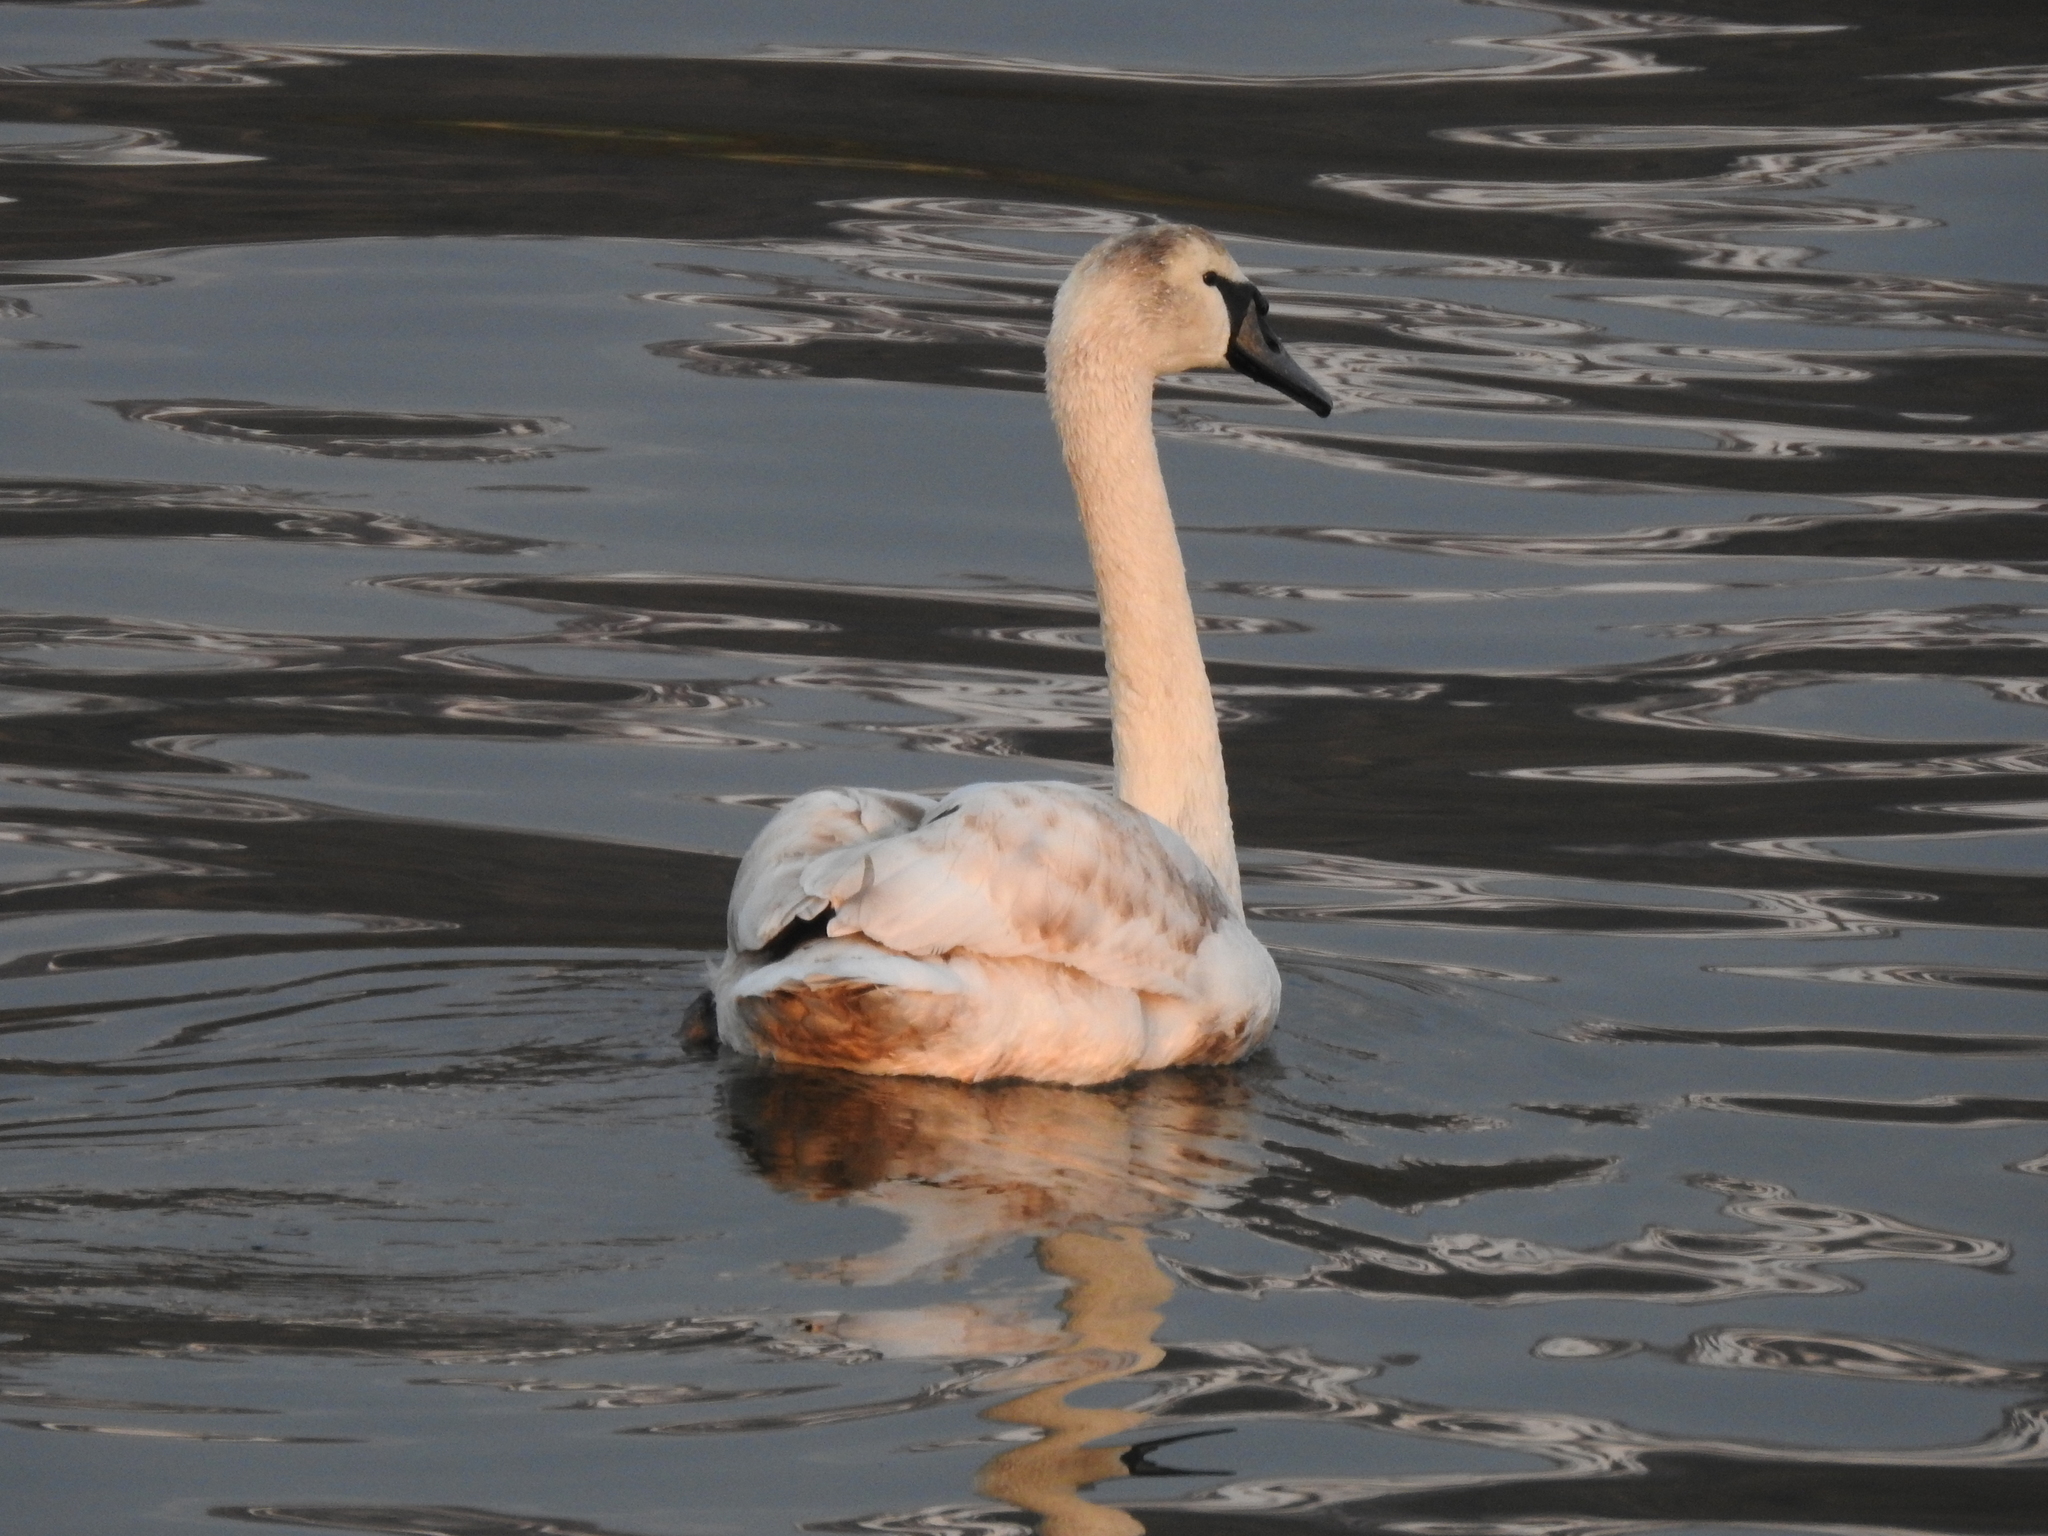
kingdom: Animalia
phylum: Chordata
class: Aves
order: Anseriformes
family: Anatidae
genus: Cygnus
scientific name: Cygnus olor
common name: Mute swan
